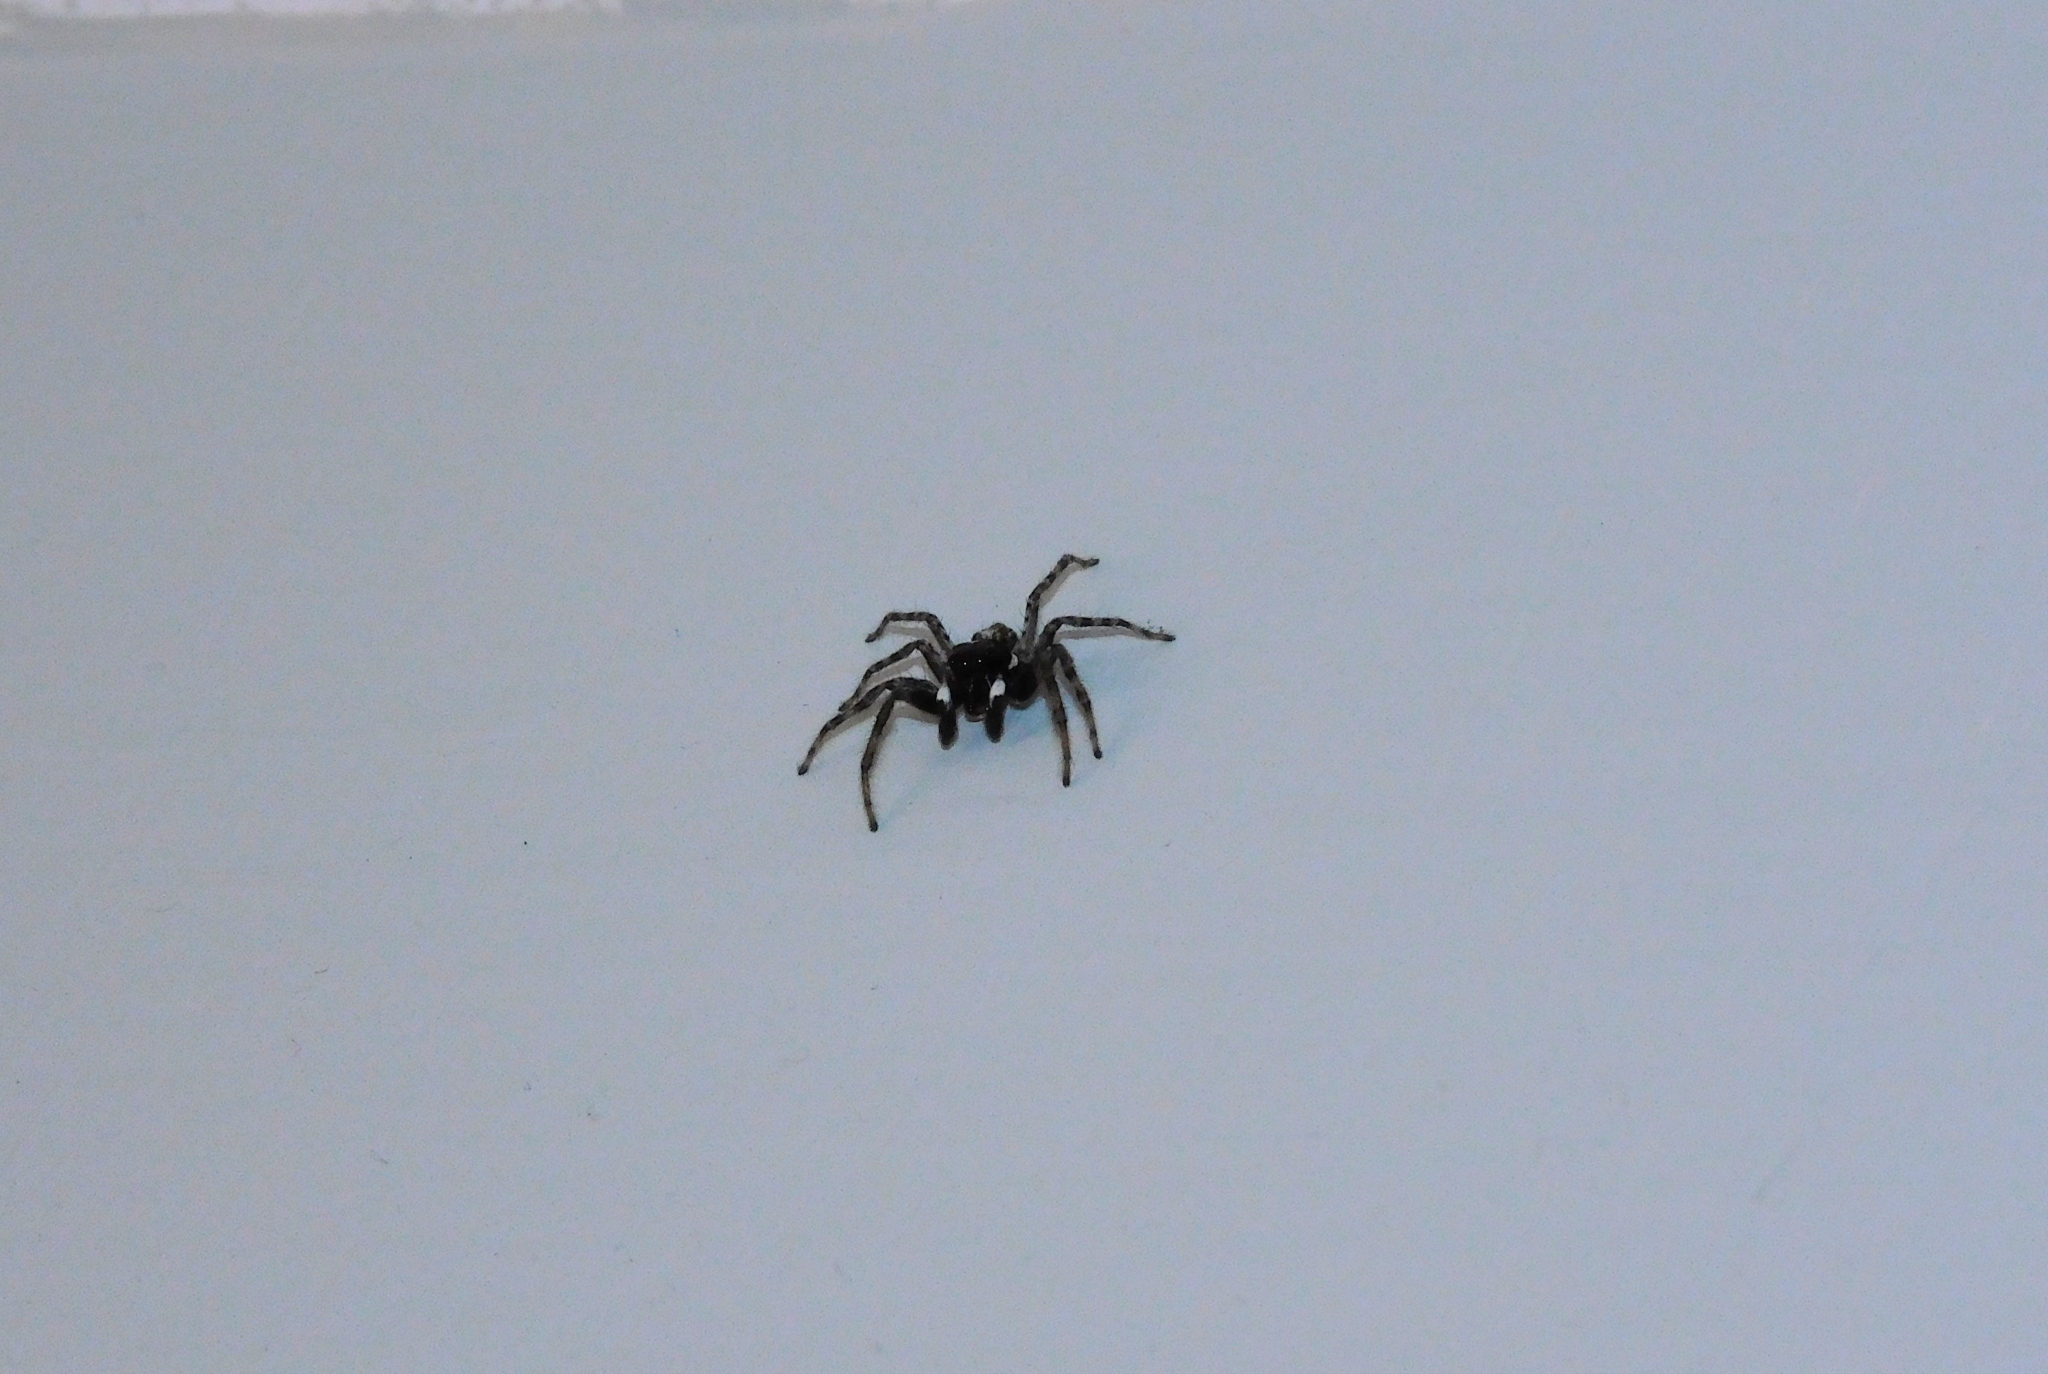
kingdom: Animalia
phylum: Arthropoda
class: Arachnida
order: Araneae
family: Salticidae
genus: Menemerus
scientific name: Menemerus semilimbatus
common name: Jumping spider
